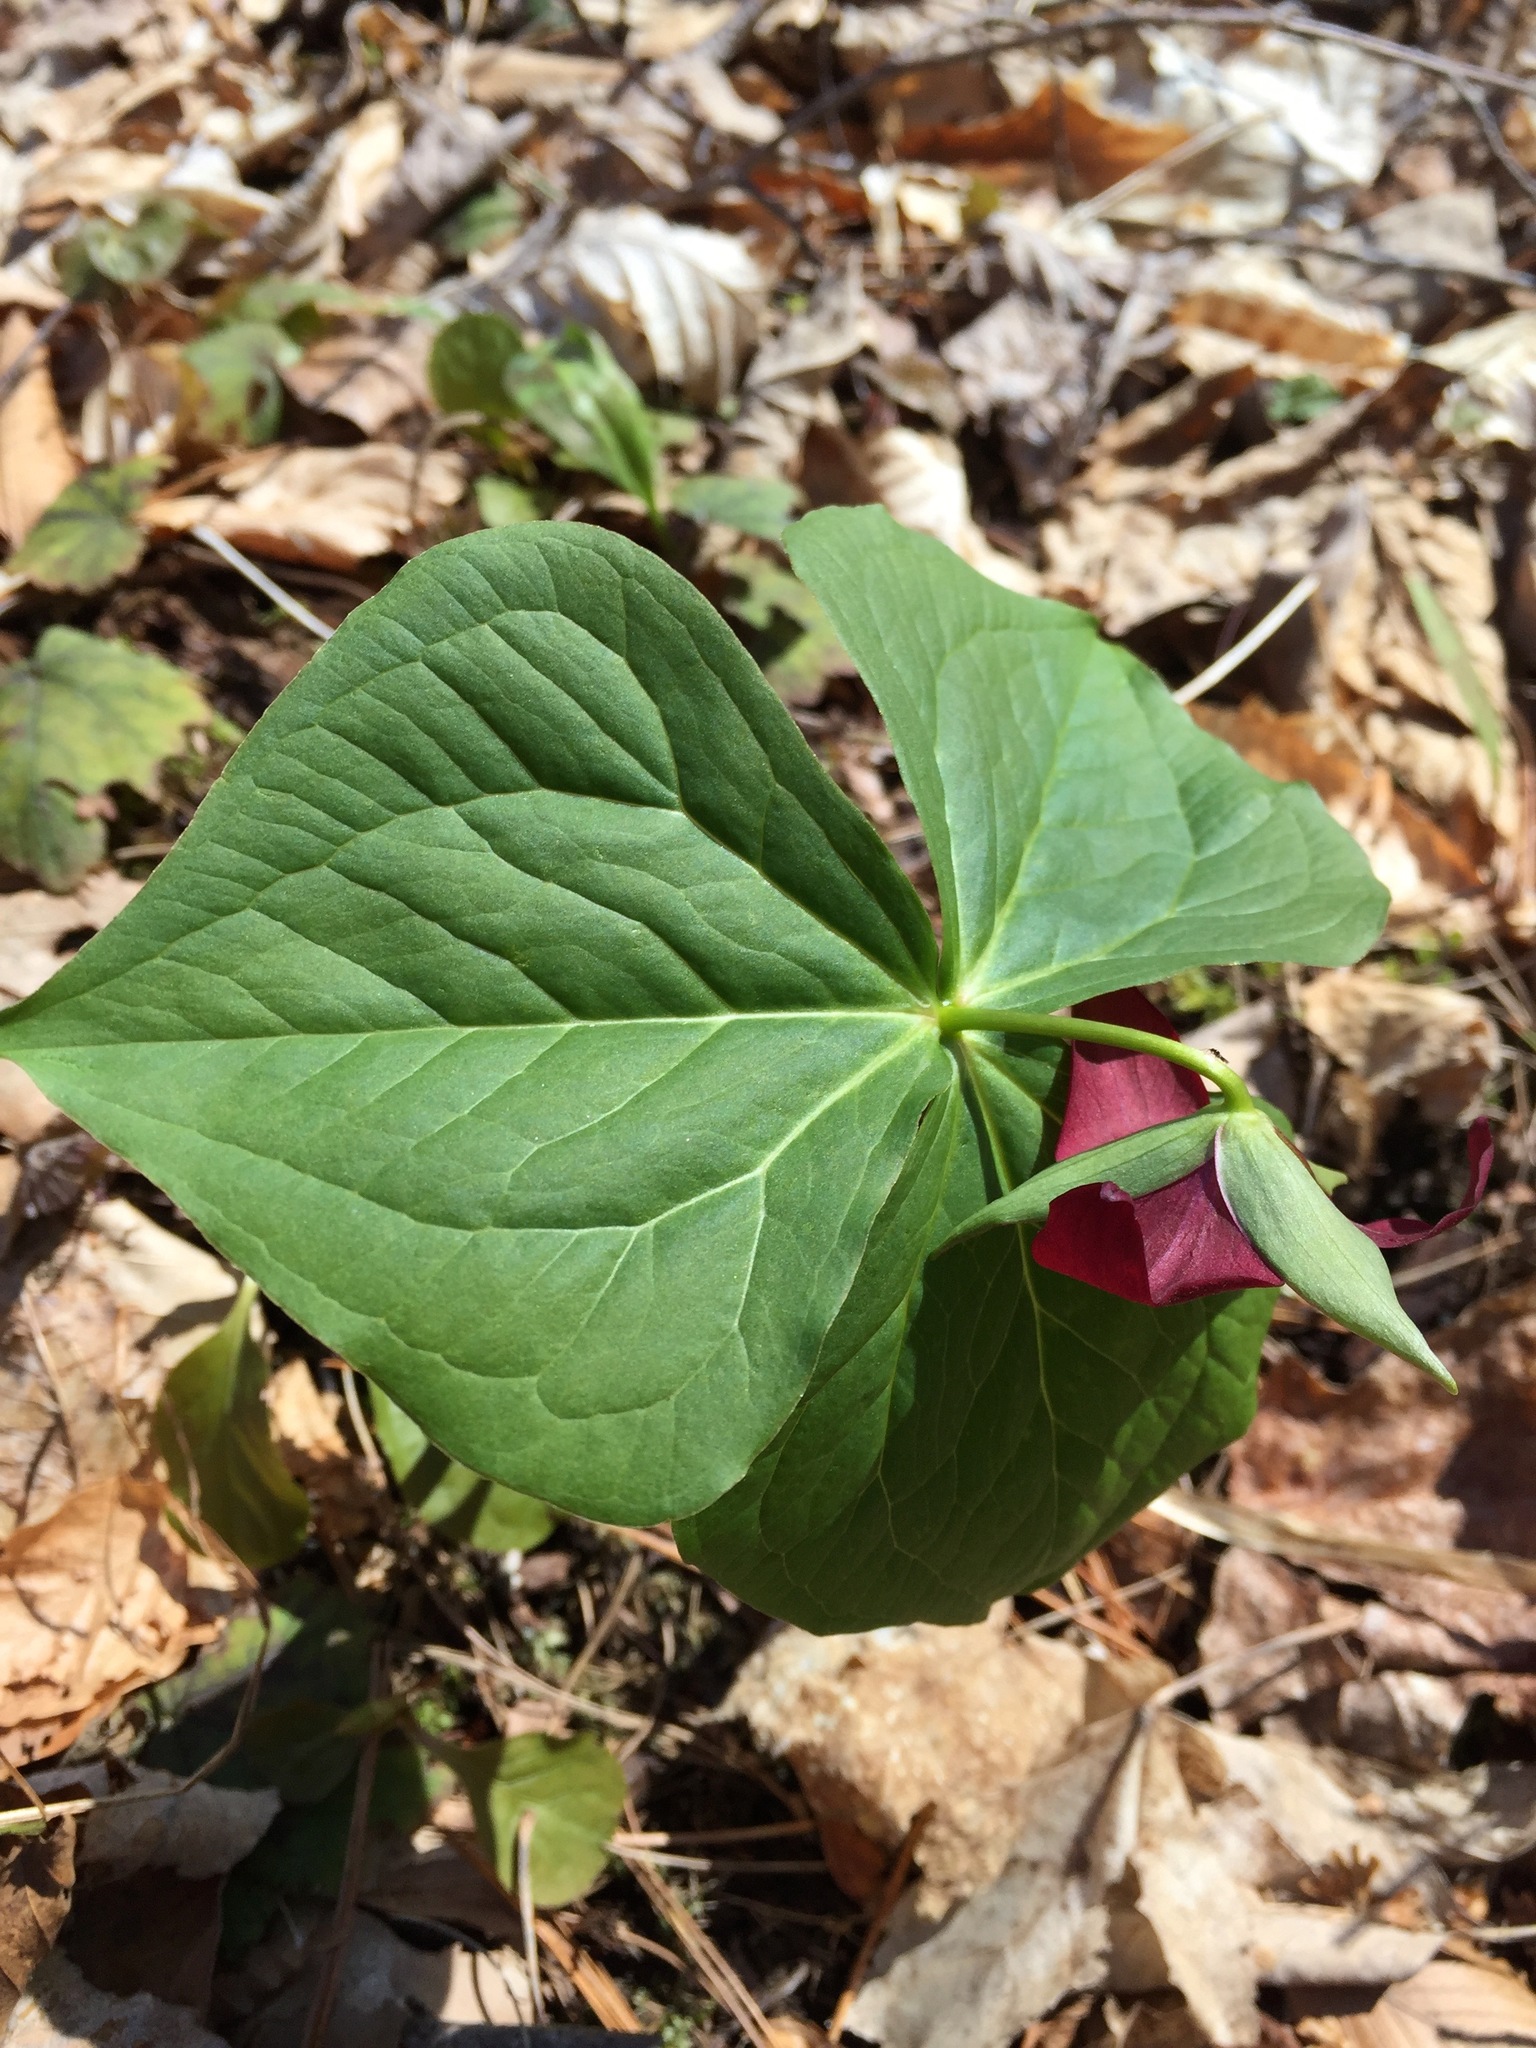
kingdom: Plantae
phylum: Tracheophyta
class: Liliopsida
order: Liliales
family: Melanthiaceae
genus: Trillium
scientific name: Trillium erectum
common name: Purple trillium
